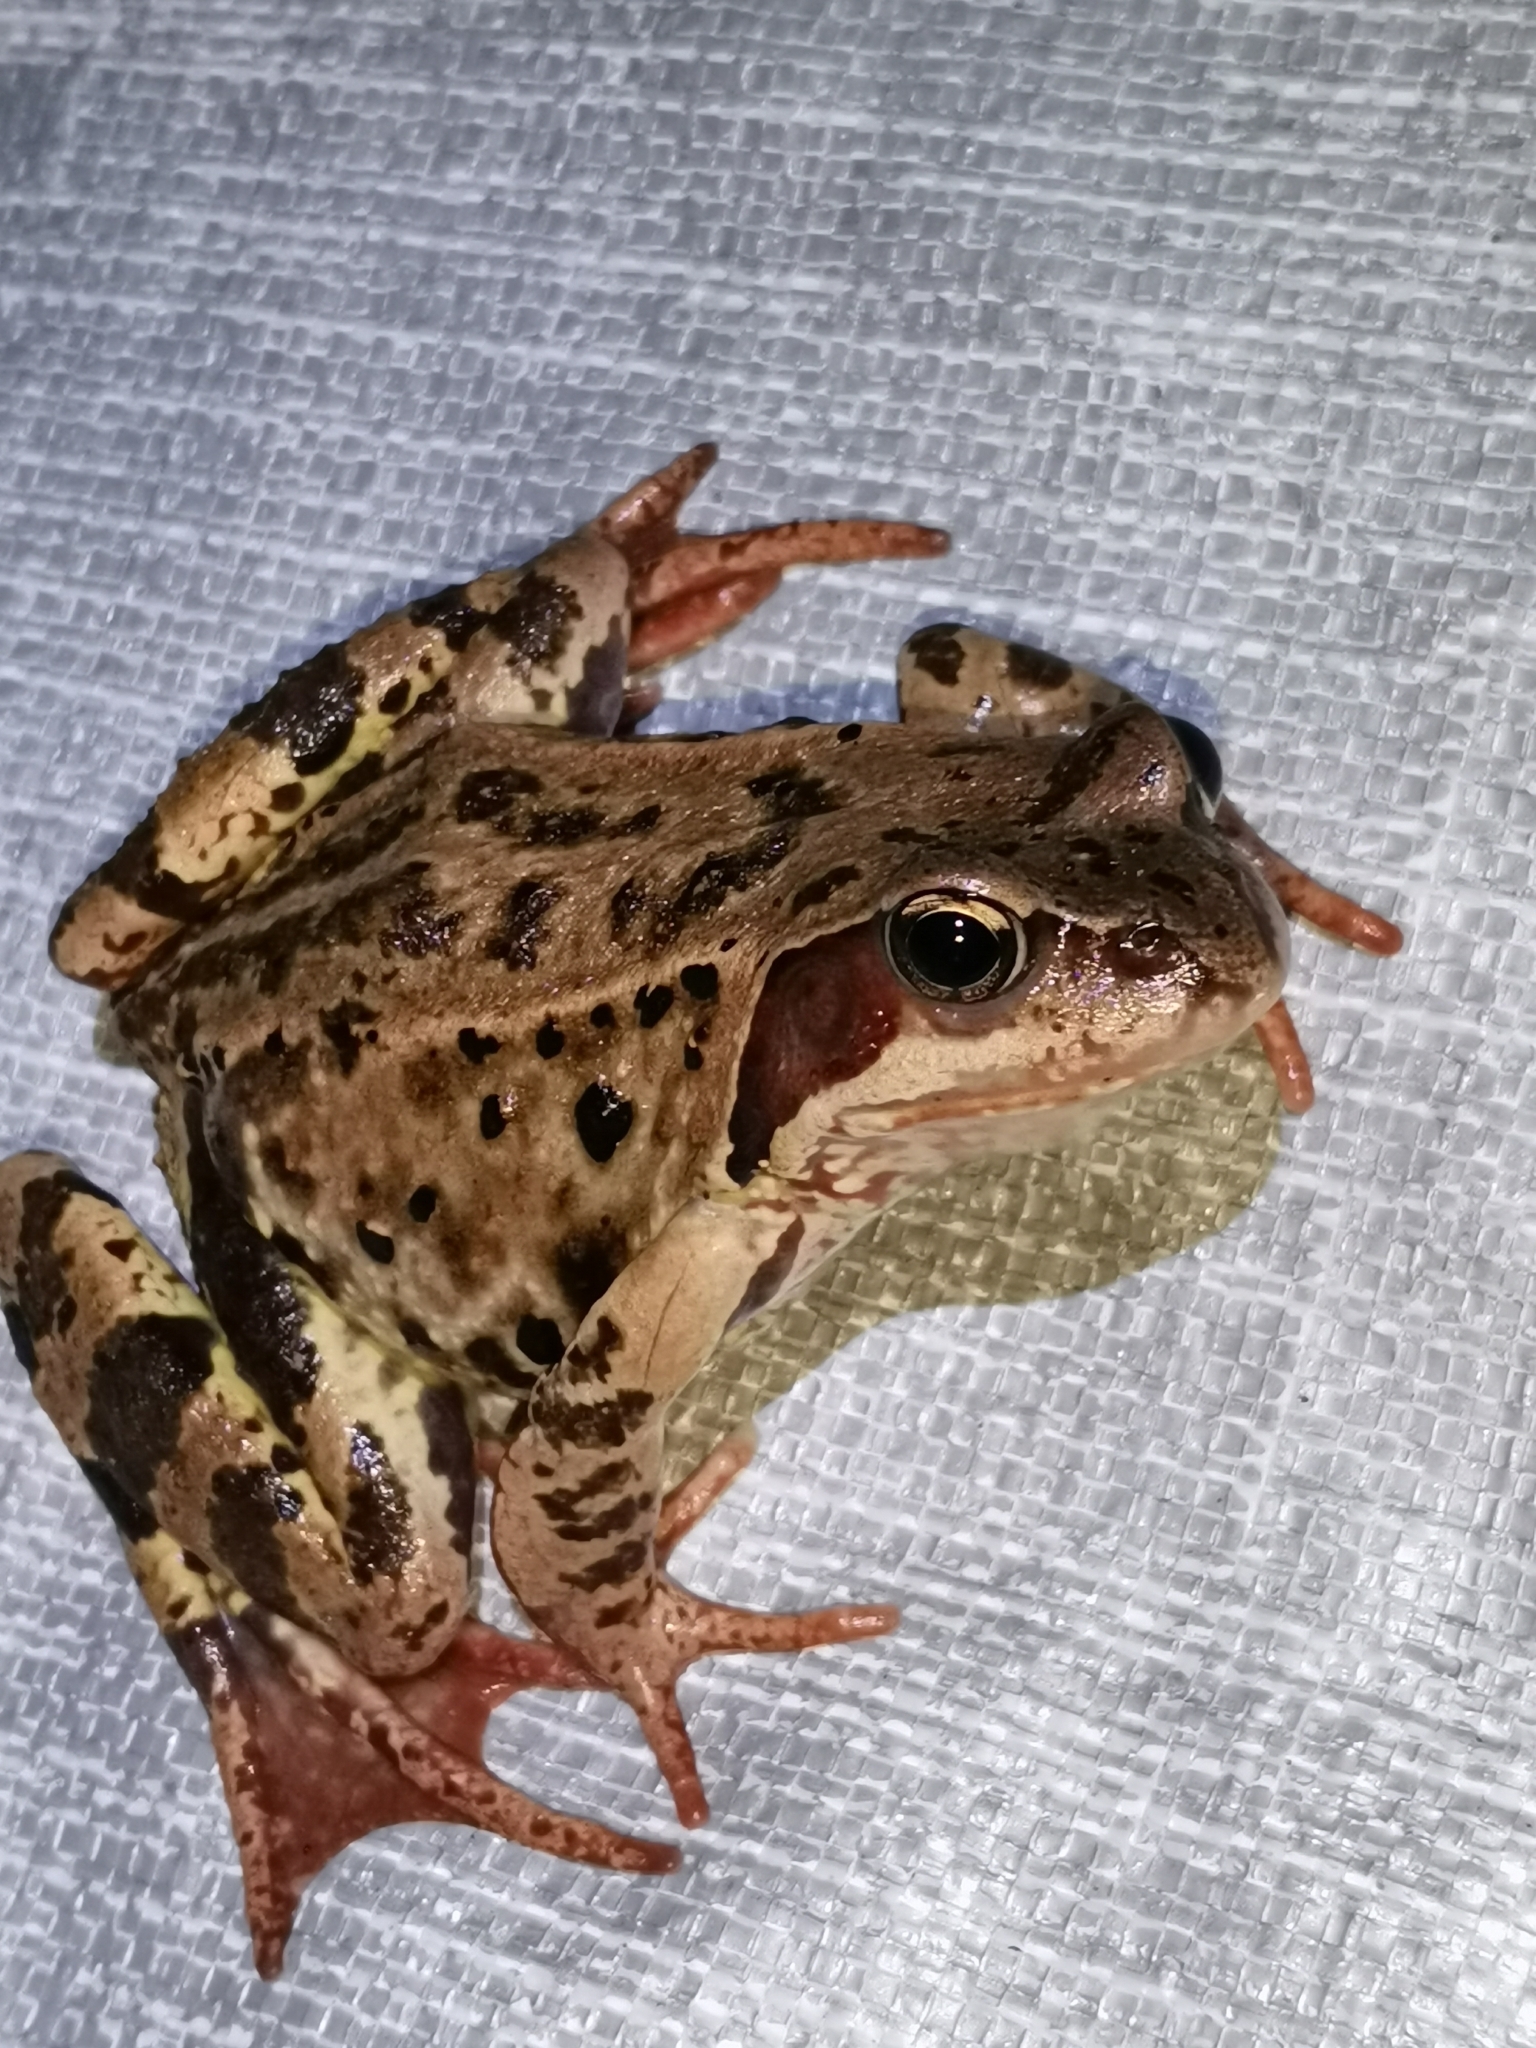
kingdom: Animalia
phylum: Chordata
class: Amphibia
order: Anura
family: Ranidae
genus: Rana
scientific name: Rana temporaria
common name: Common frog
